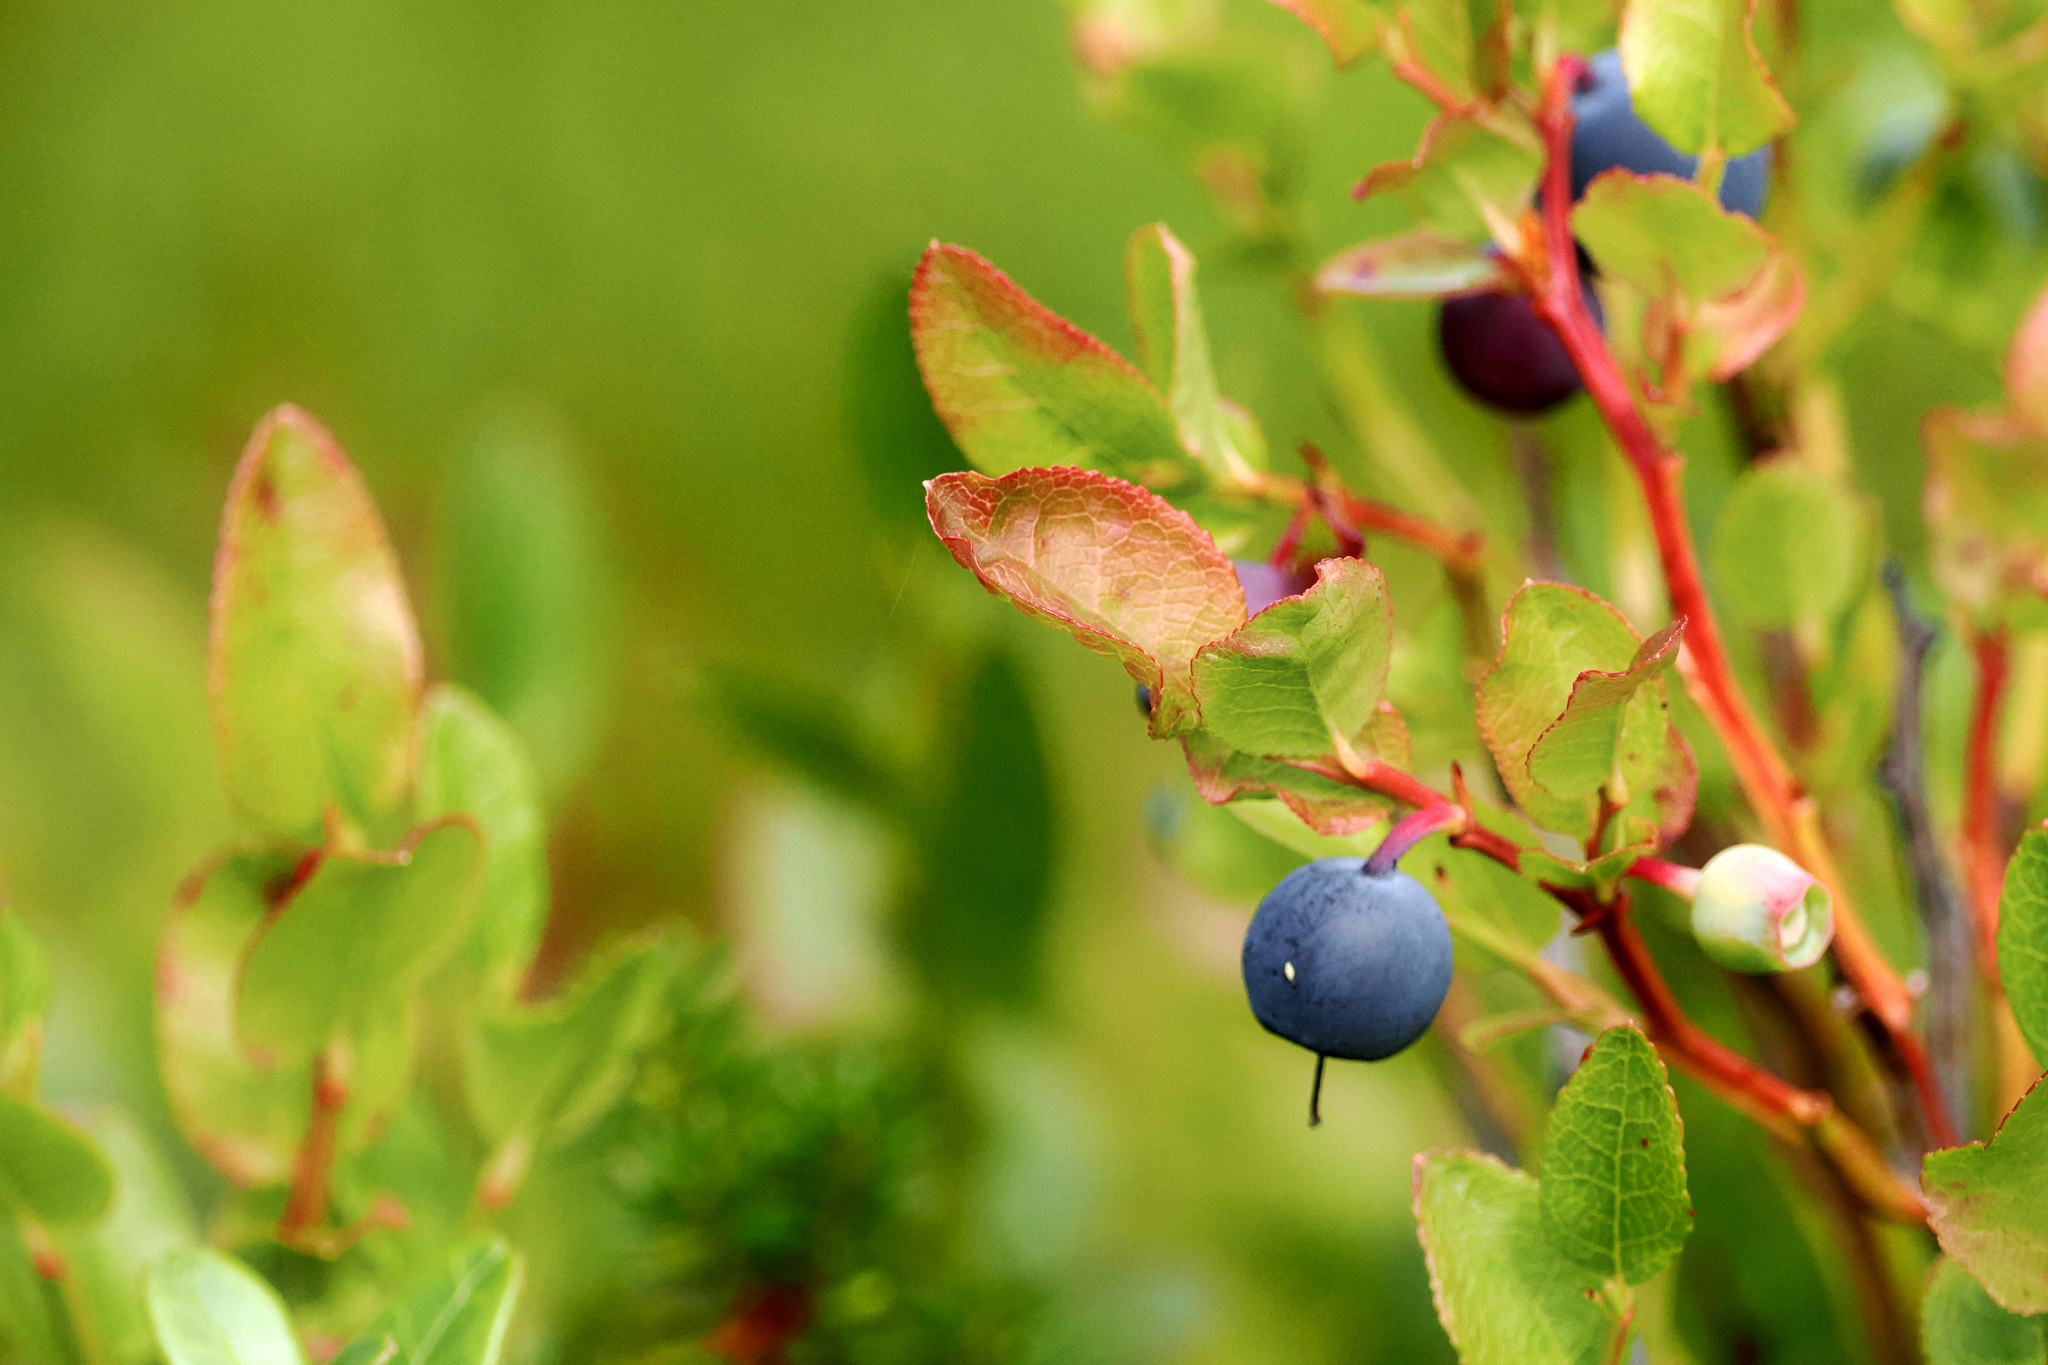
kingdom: Plantae
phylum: Tracheophyta
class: Magnoliopsida
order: Ericales
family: Ericaceae
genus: Vaccinium
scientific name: Vaccinium myrtillus
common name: Bilberry
